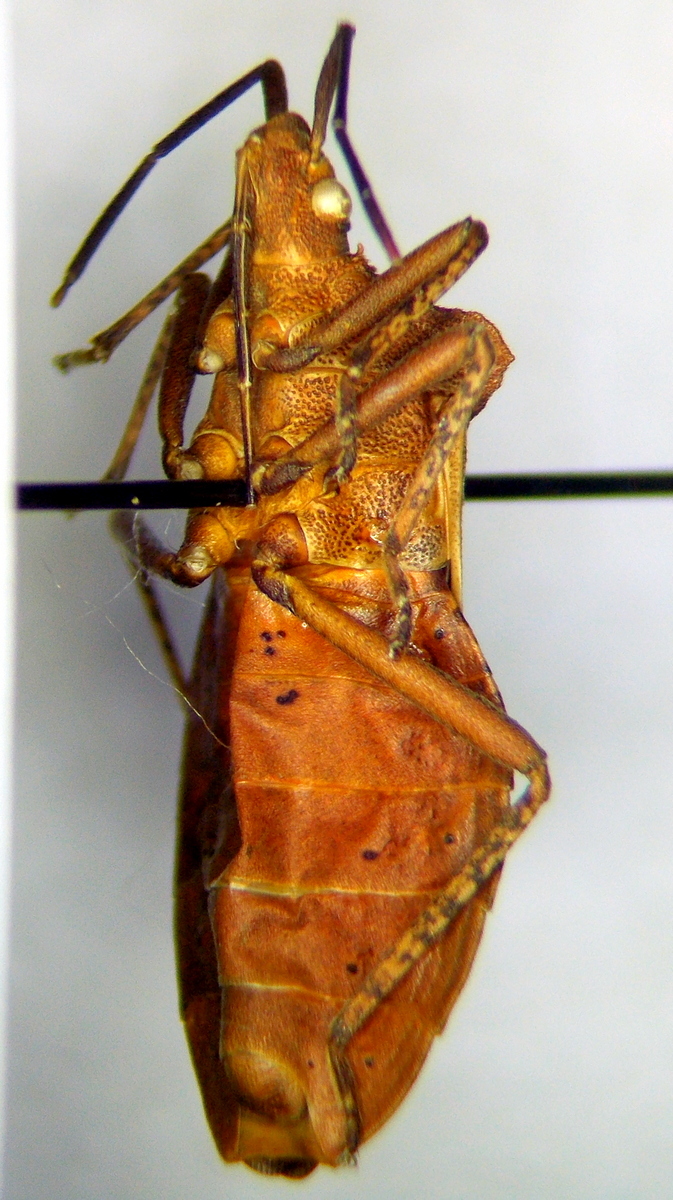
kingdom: Animalia
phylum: Arthropoda
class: Insecta
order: Hemiptera
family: Coreidae
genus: Sethenira
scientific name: Sethenira ferruginea
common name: Leaf-footed bug
